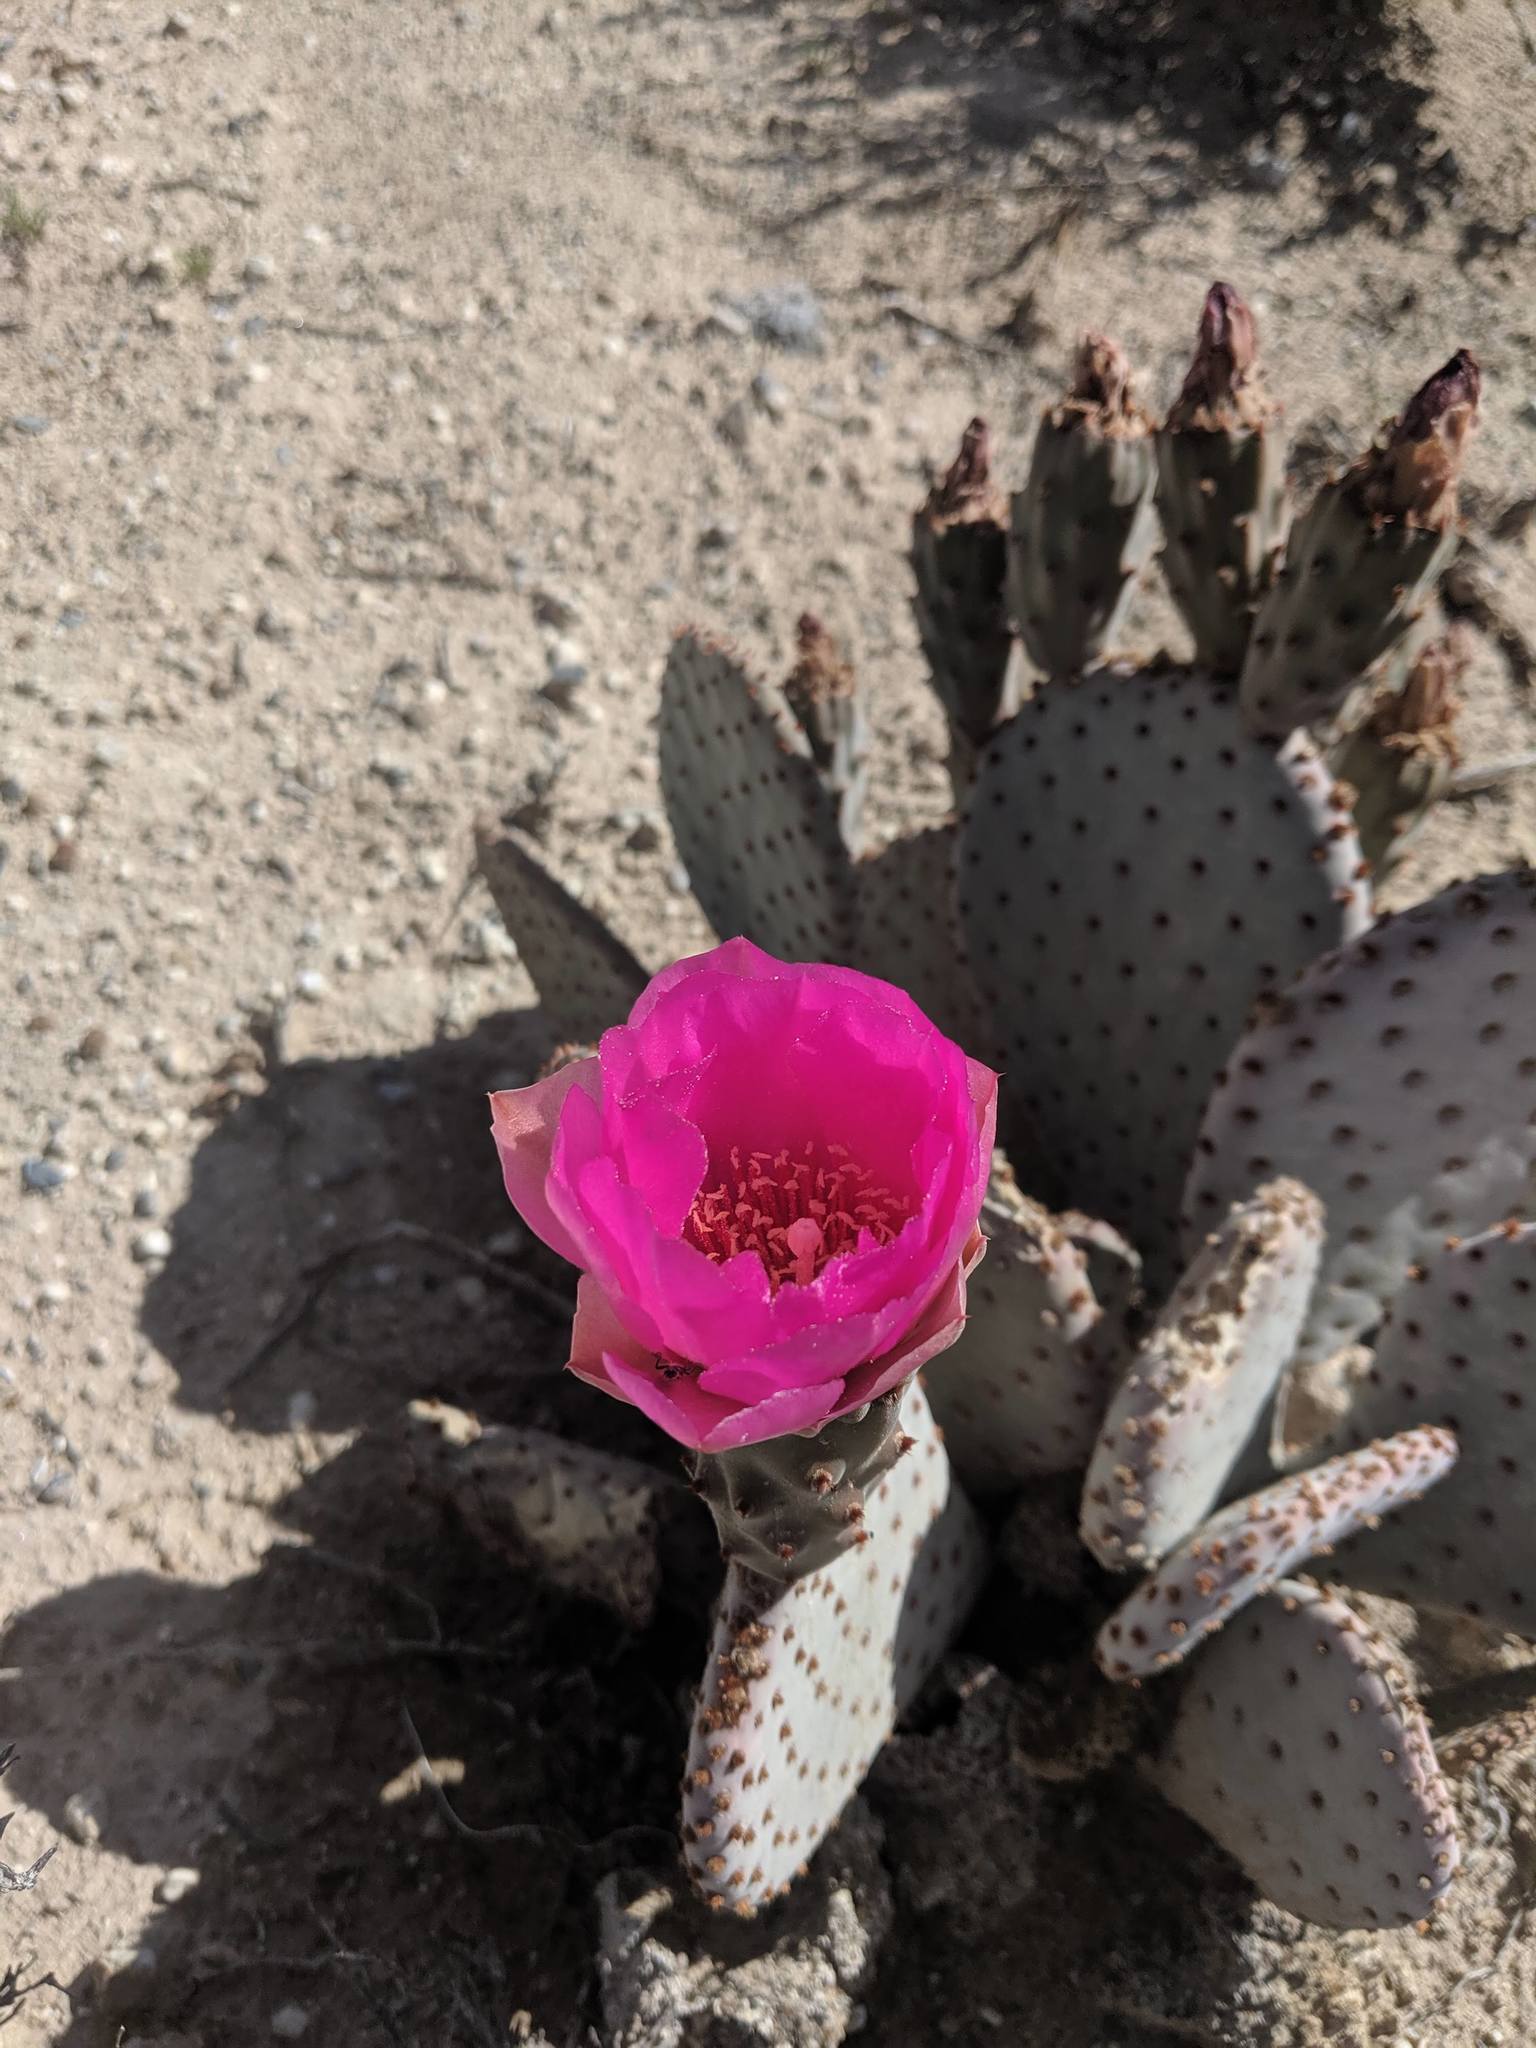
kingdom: Plantae
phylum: Tracheophyta
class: Magnoliopsida
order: Caryophyllales
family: Cactaceae
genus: Opuntia
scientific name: Opuntia basilaris
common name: Beavertail prickly-pear
